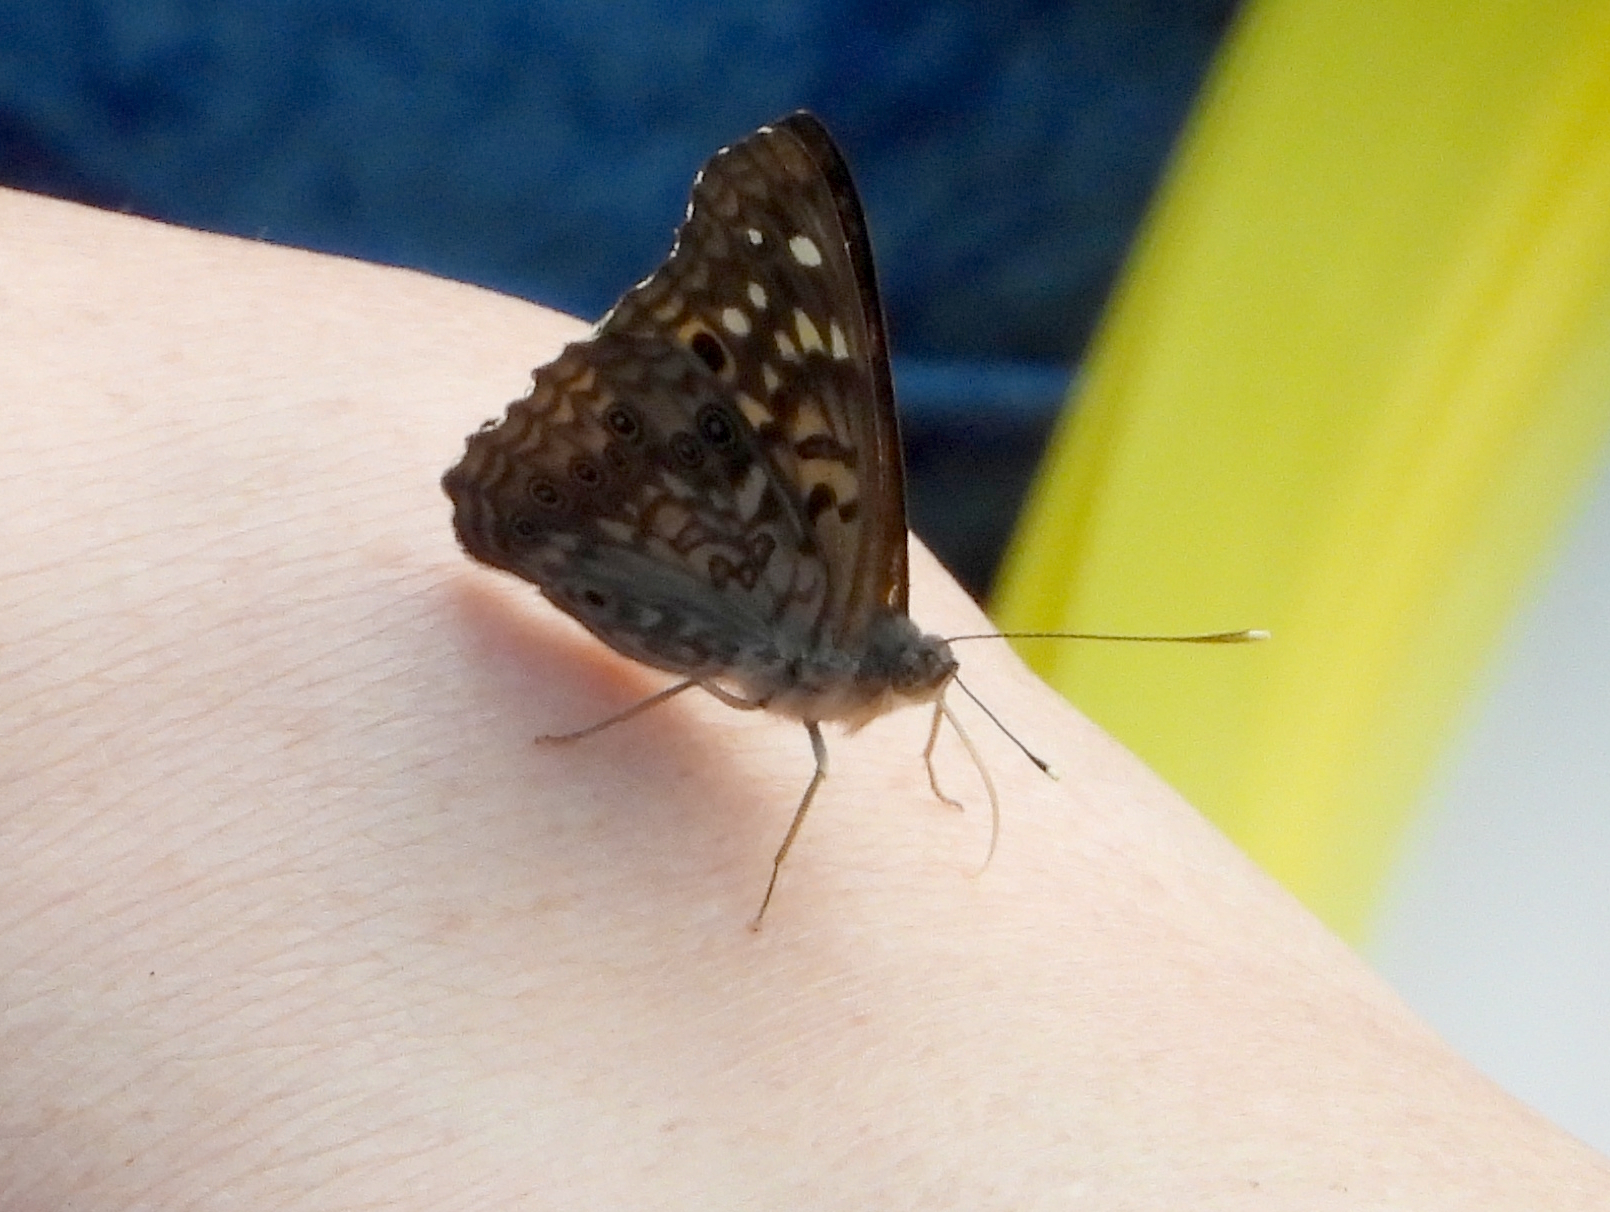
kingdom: Animalia
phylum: Arthropoda
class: Insecta
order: Lepidoptera
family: Nymphalidae
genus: Asterocampa
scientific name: Asterocampa celtis
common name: Hackberry emperor
